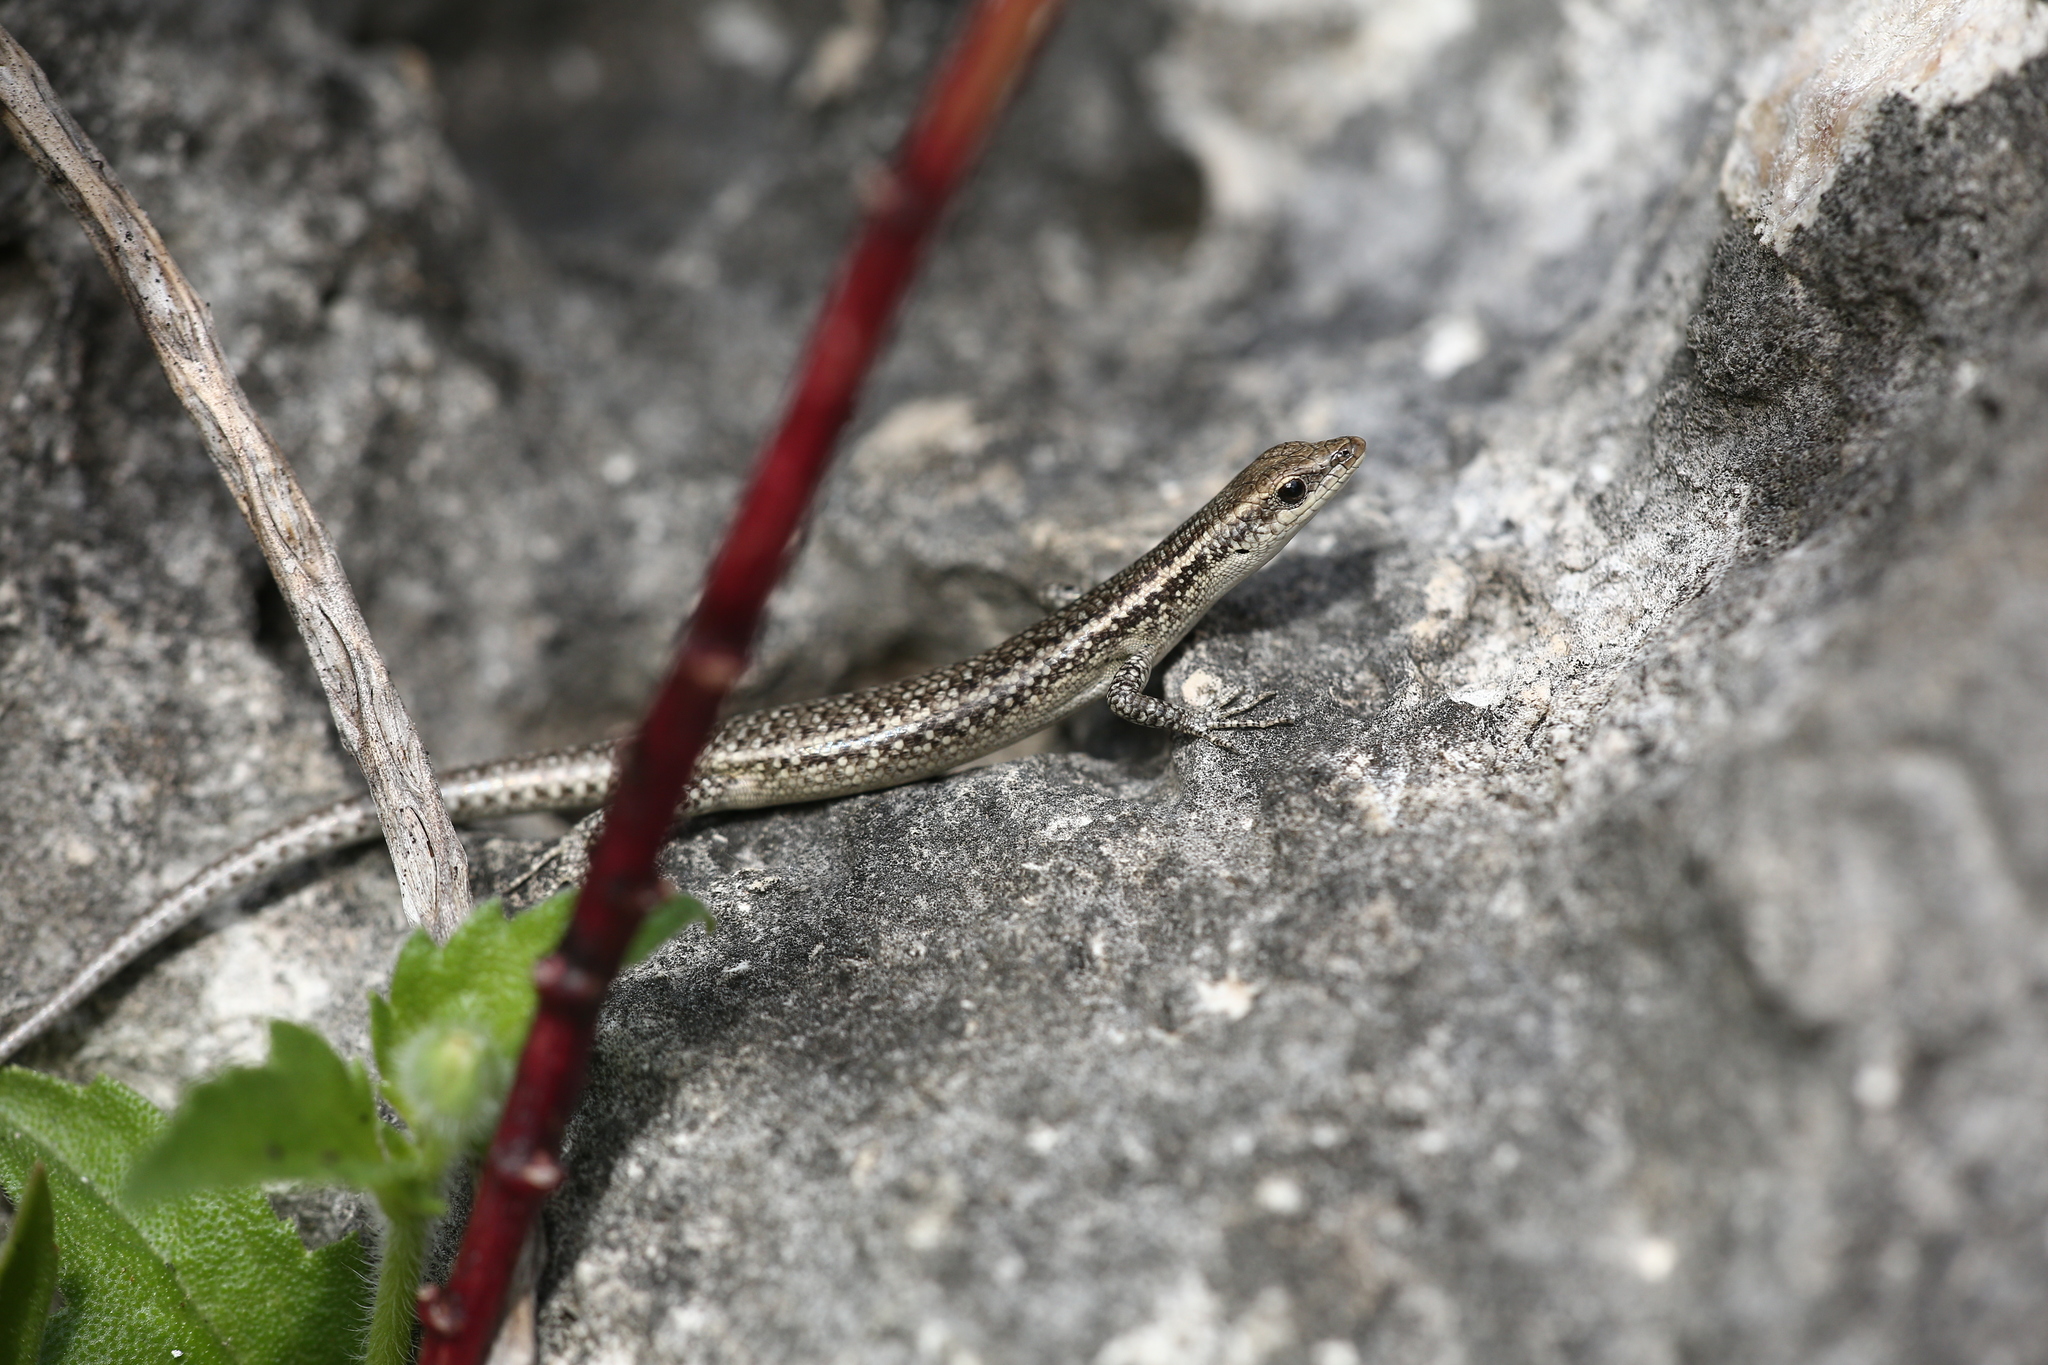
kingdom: Animalia
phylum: Chordata
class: Squamata
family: Scincidae
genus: Cryptoblepharus
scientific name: Cryptoblepharus novocaledonicus
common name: New caledonian shore skink
